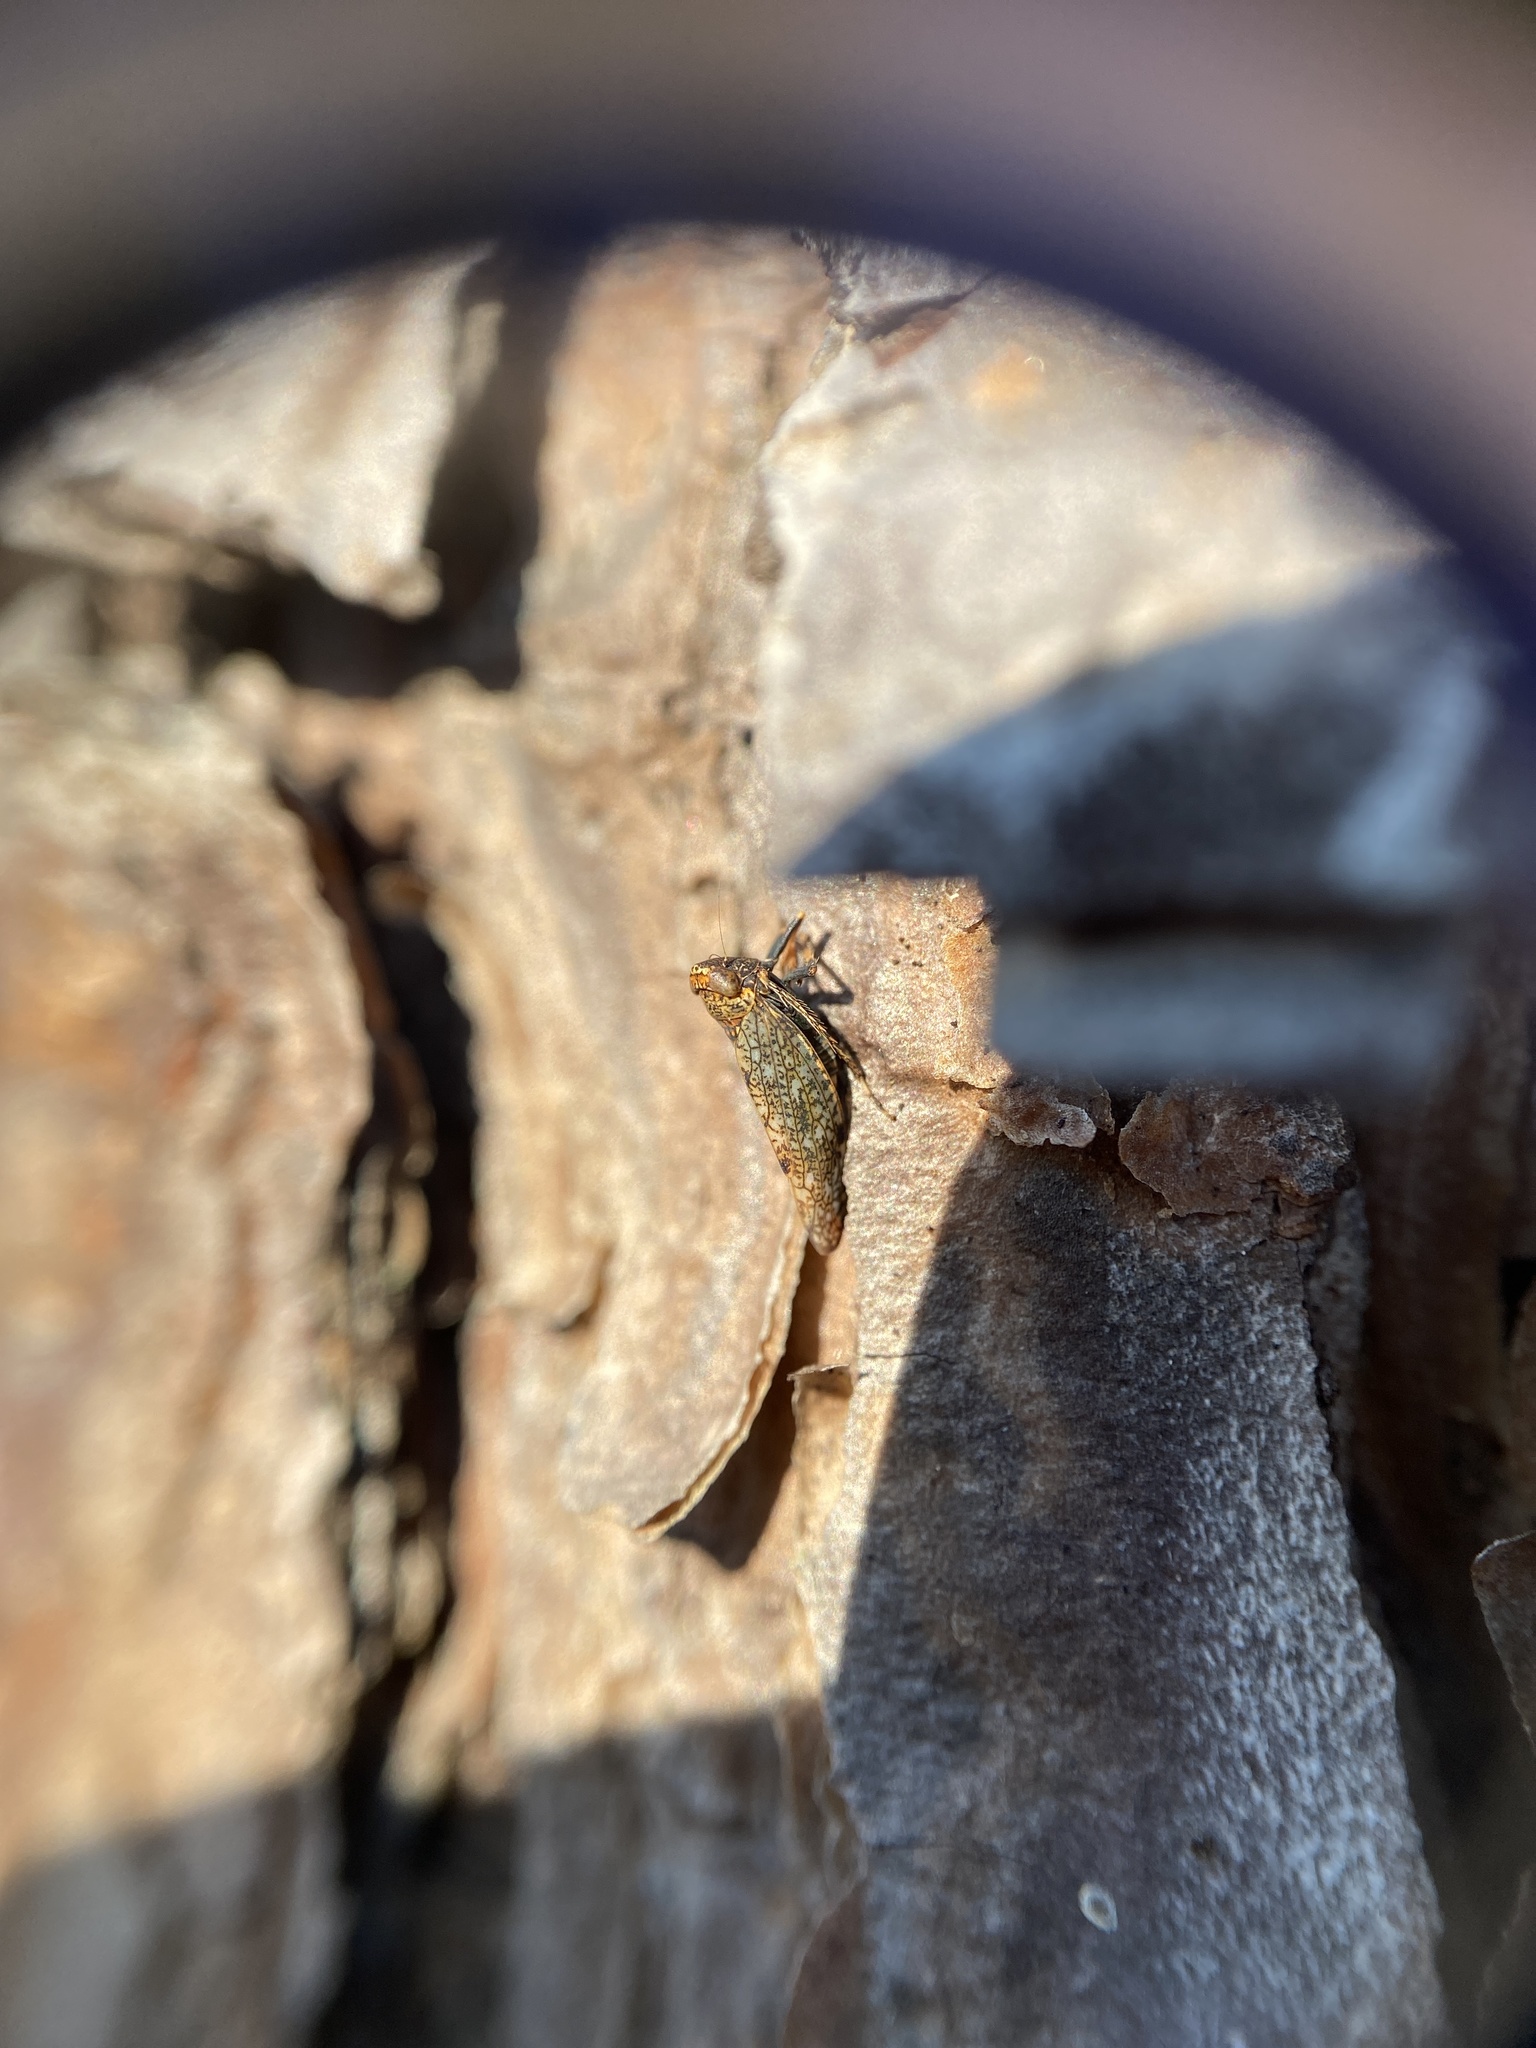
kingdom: Animalia
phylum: Arthropoda
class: Insecta
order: Hemiptera
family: Cicadellidae
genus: Orientus
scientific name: Orientus ishidae
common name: Japanese leafhopper
